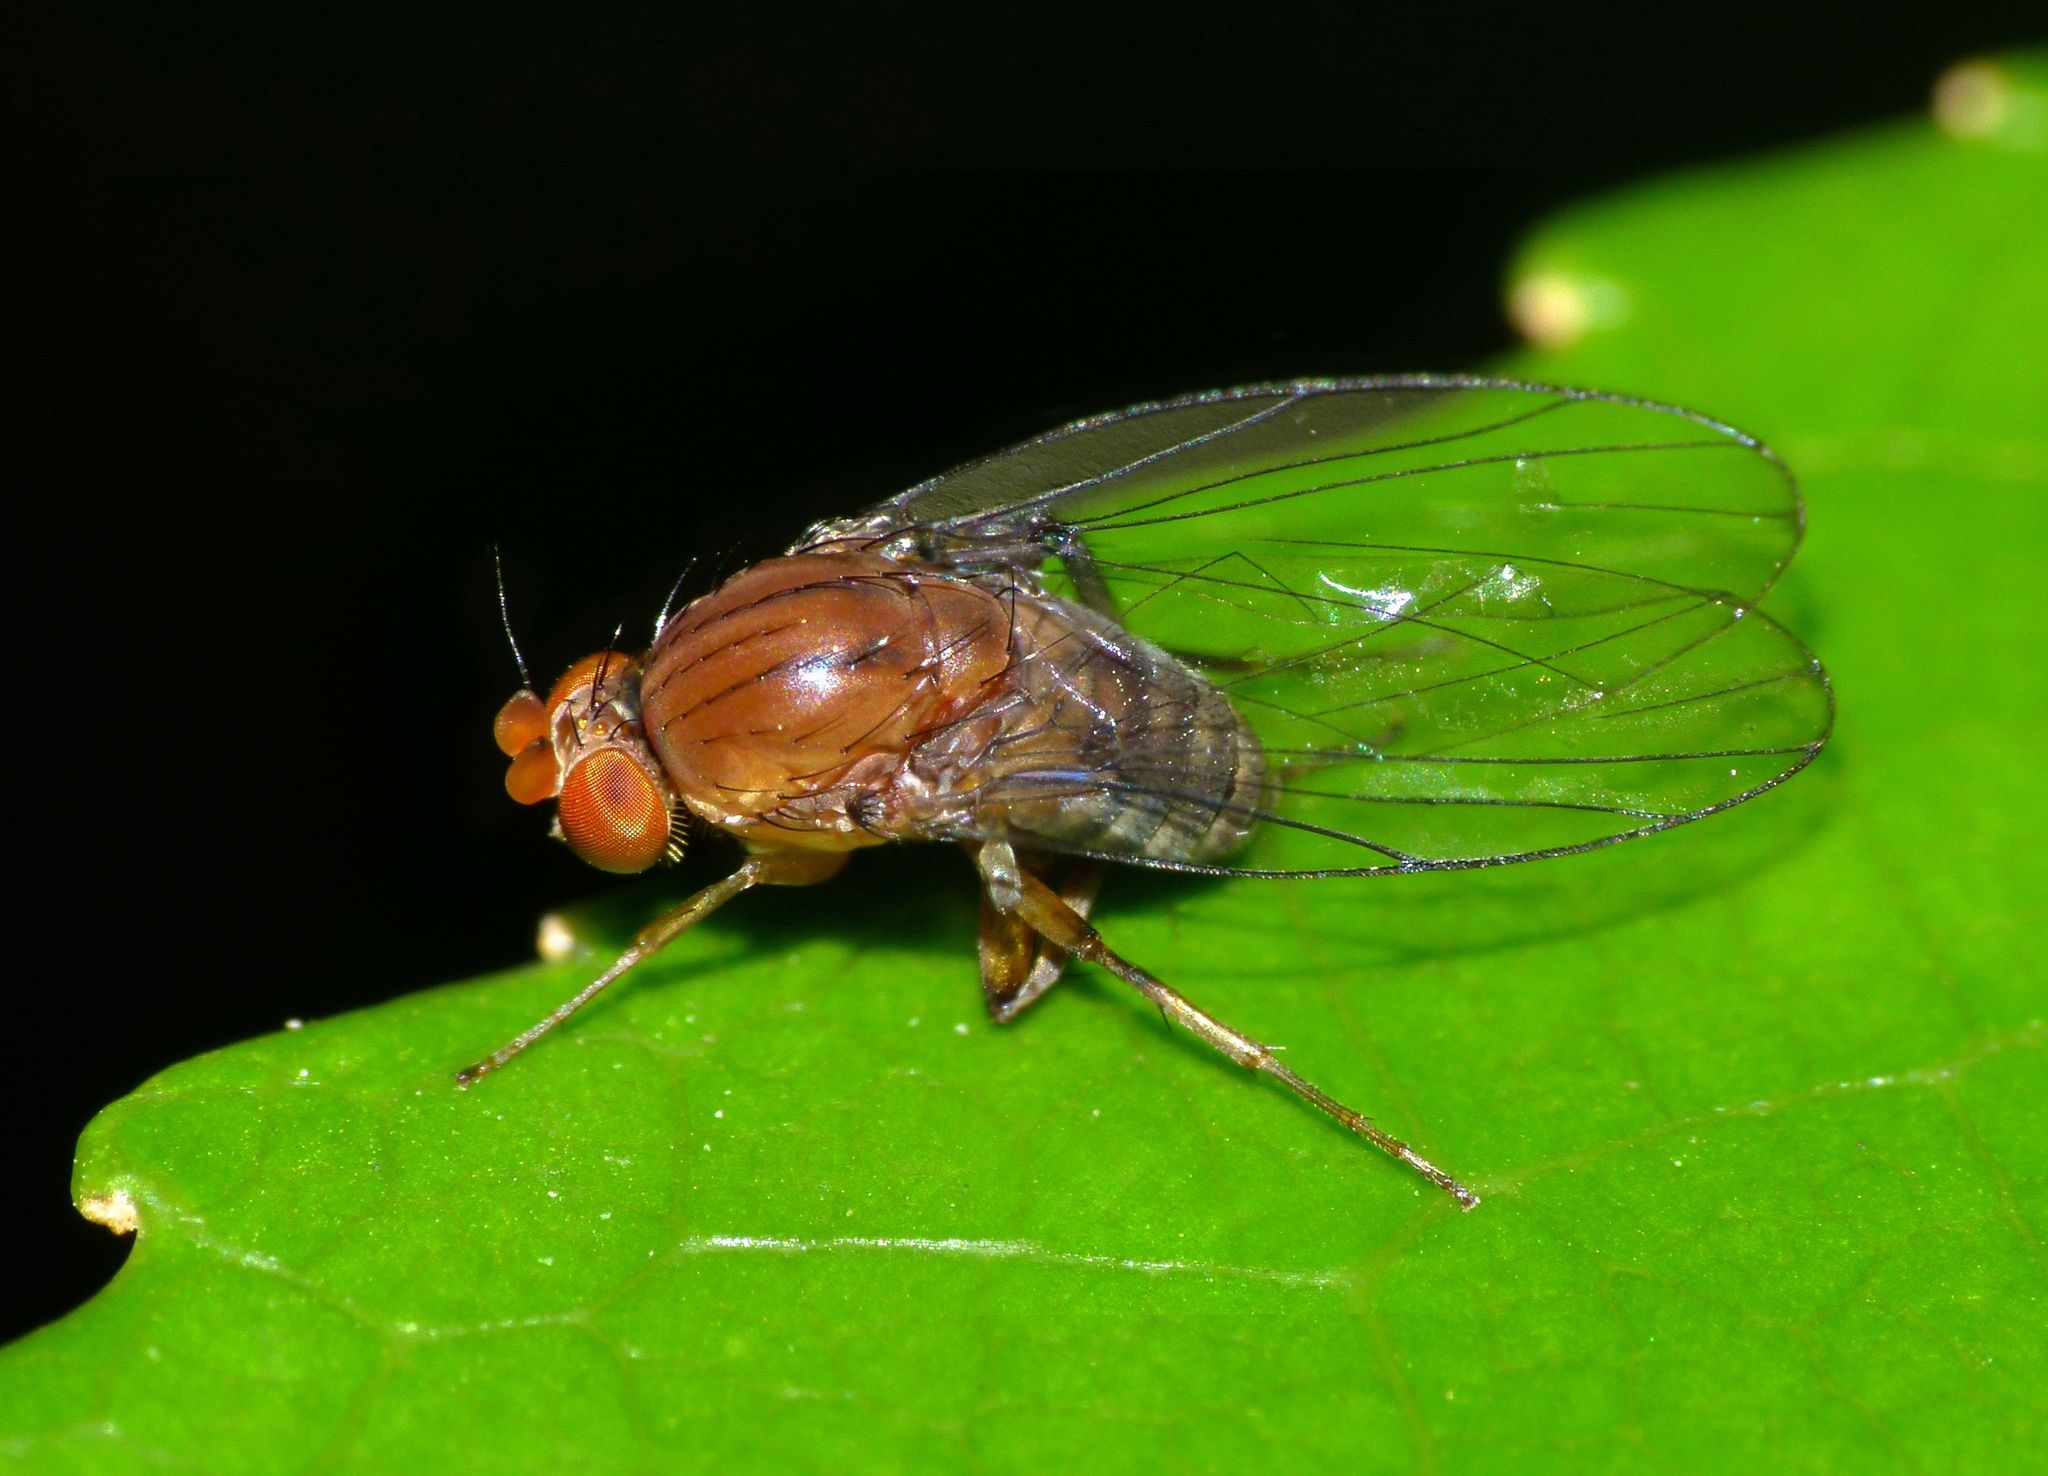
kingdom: Animalia
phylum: Arthropoda
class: Insecta
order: Diptera
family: Phoridae
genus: Sciadocera
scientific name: Sciadocera rufomaculata
